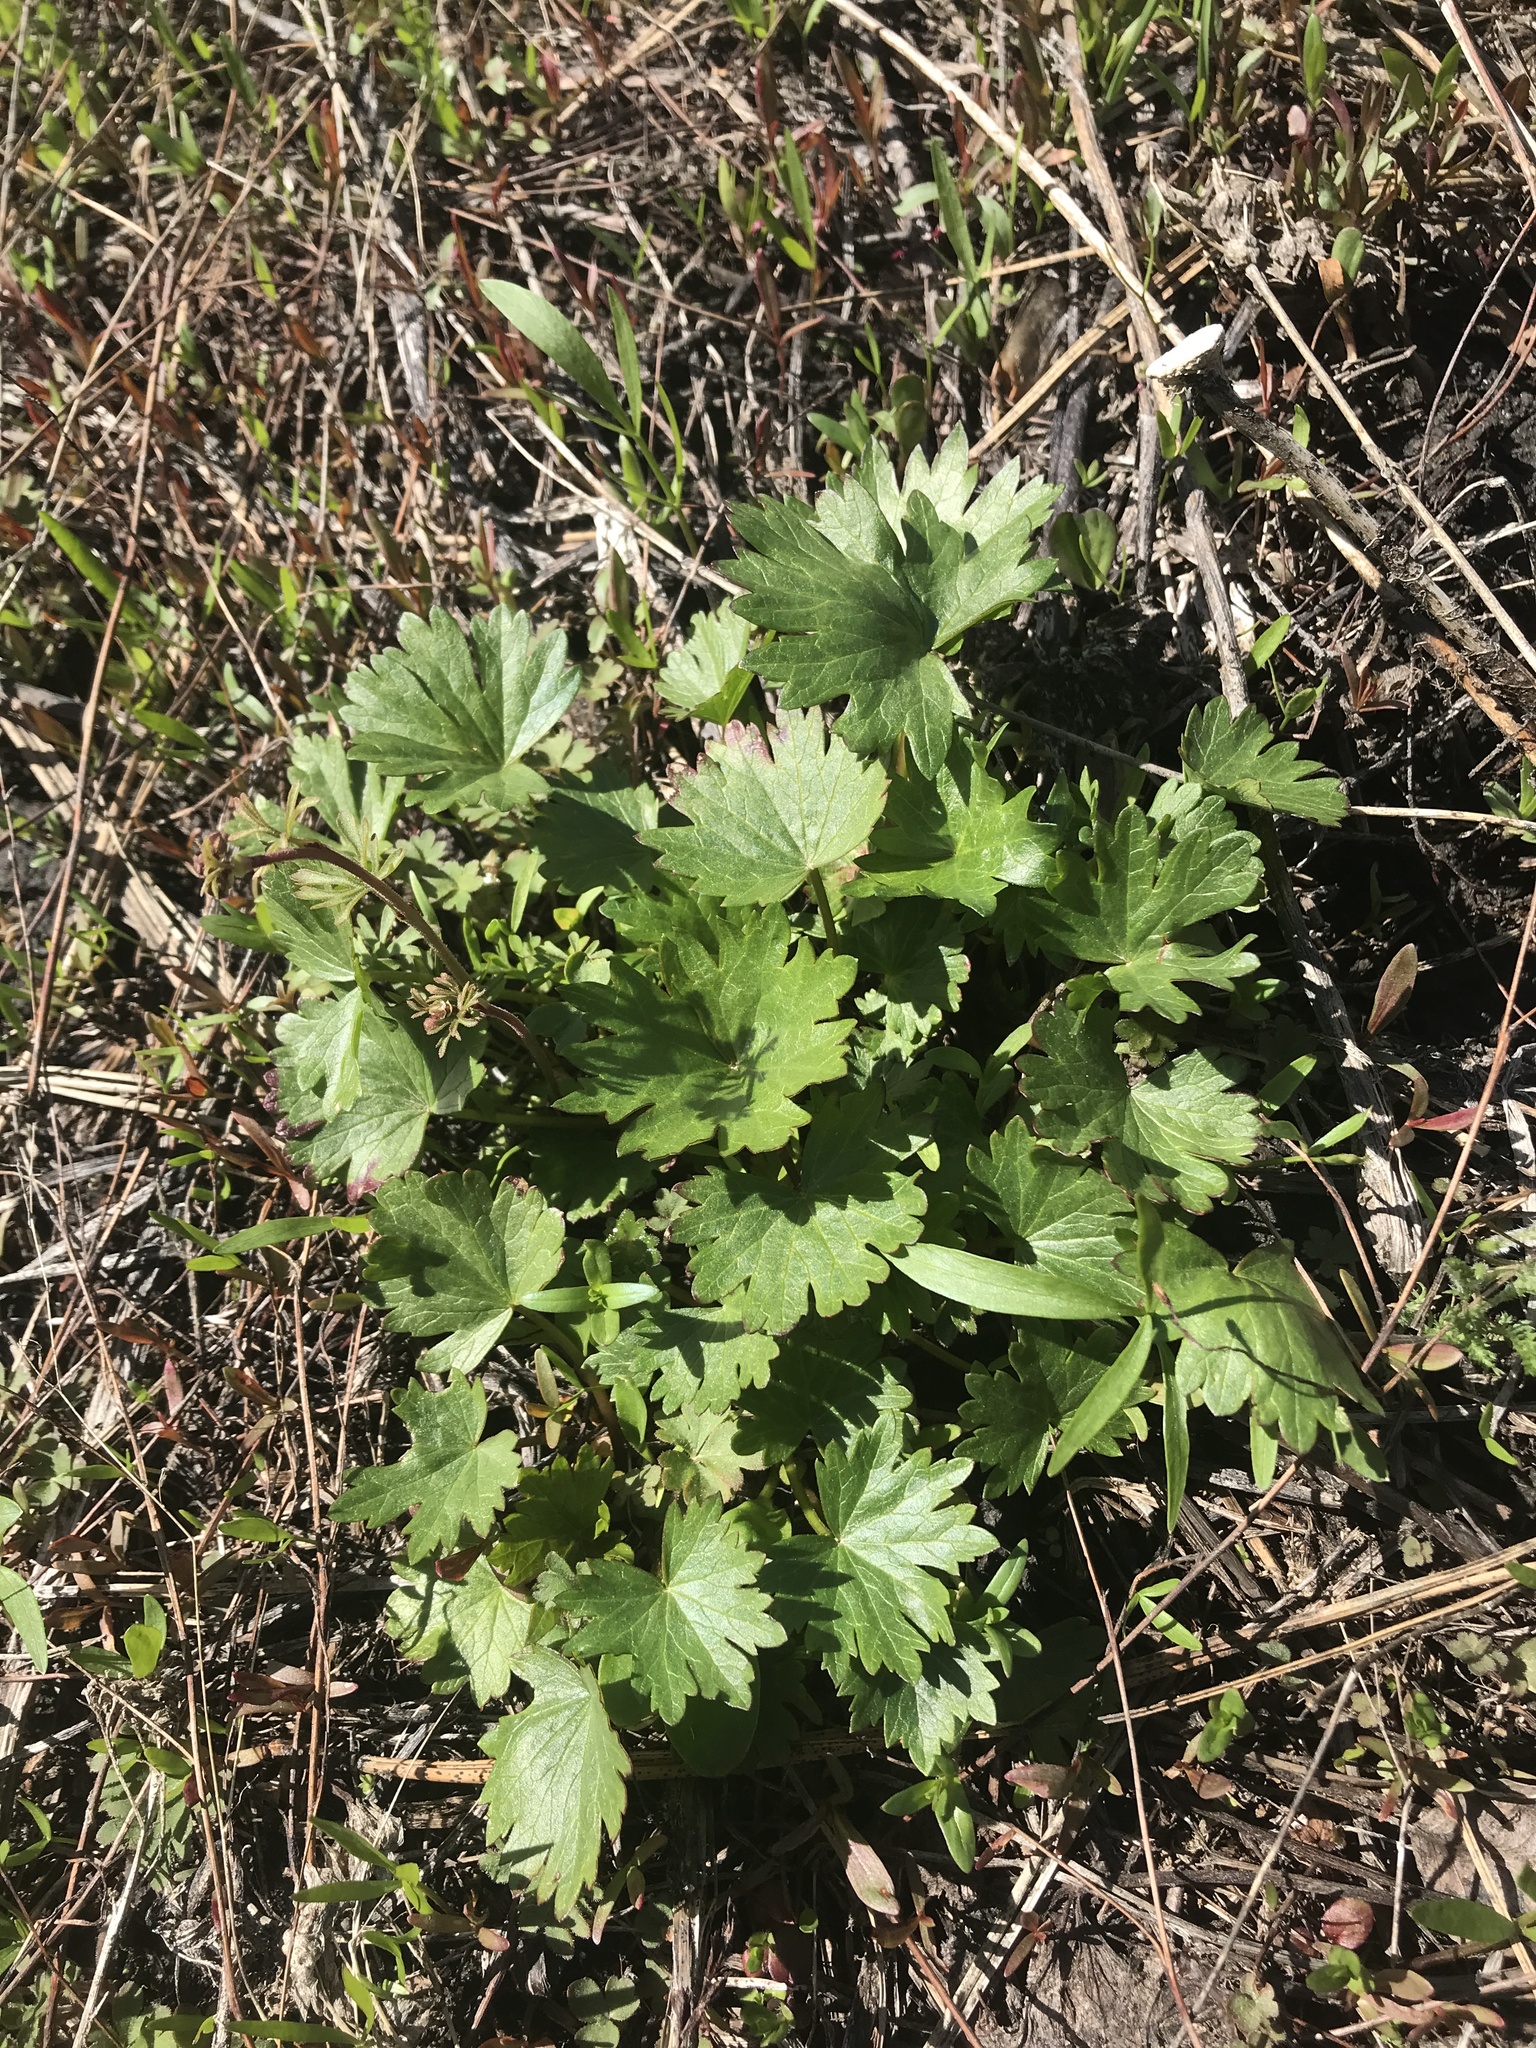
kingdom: Plantae
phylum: Tracheophyta
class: Magnoliopsida
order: Malvales
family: Malvaceae
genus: Sidalcea
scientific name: Sidalcea oregana
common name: Oregon checker-mallow
